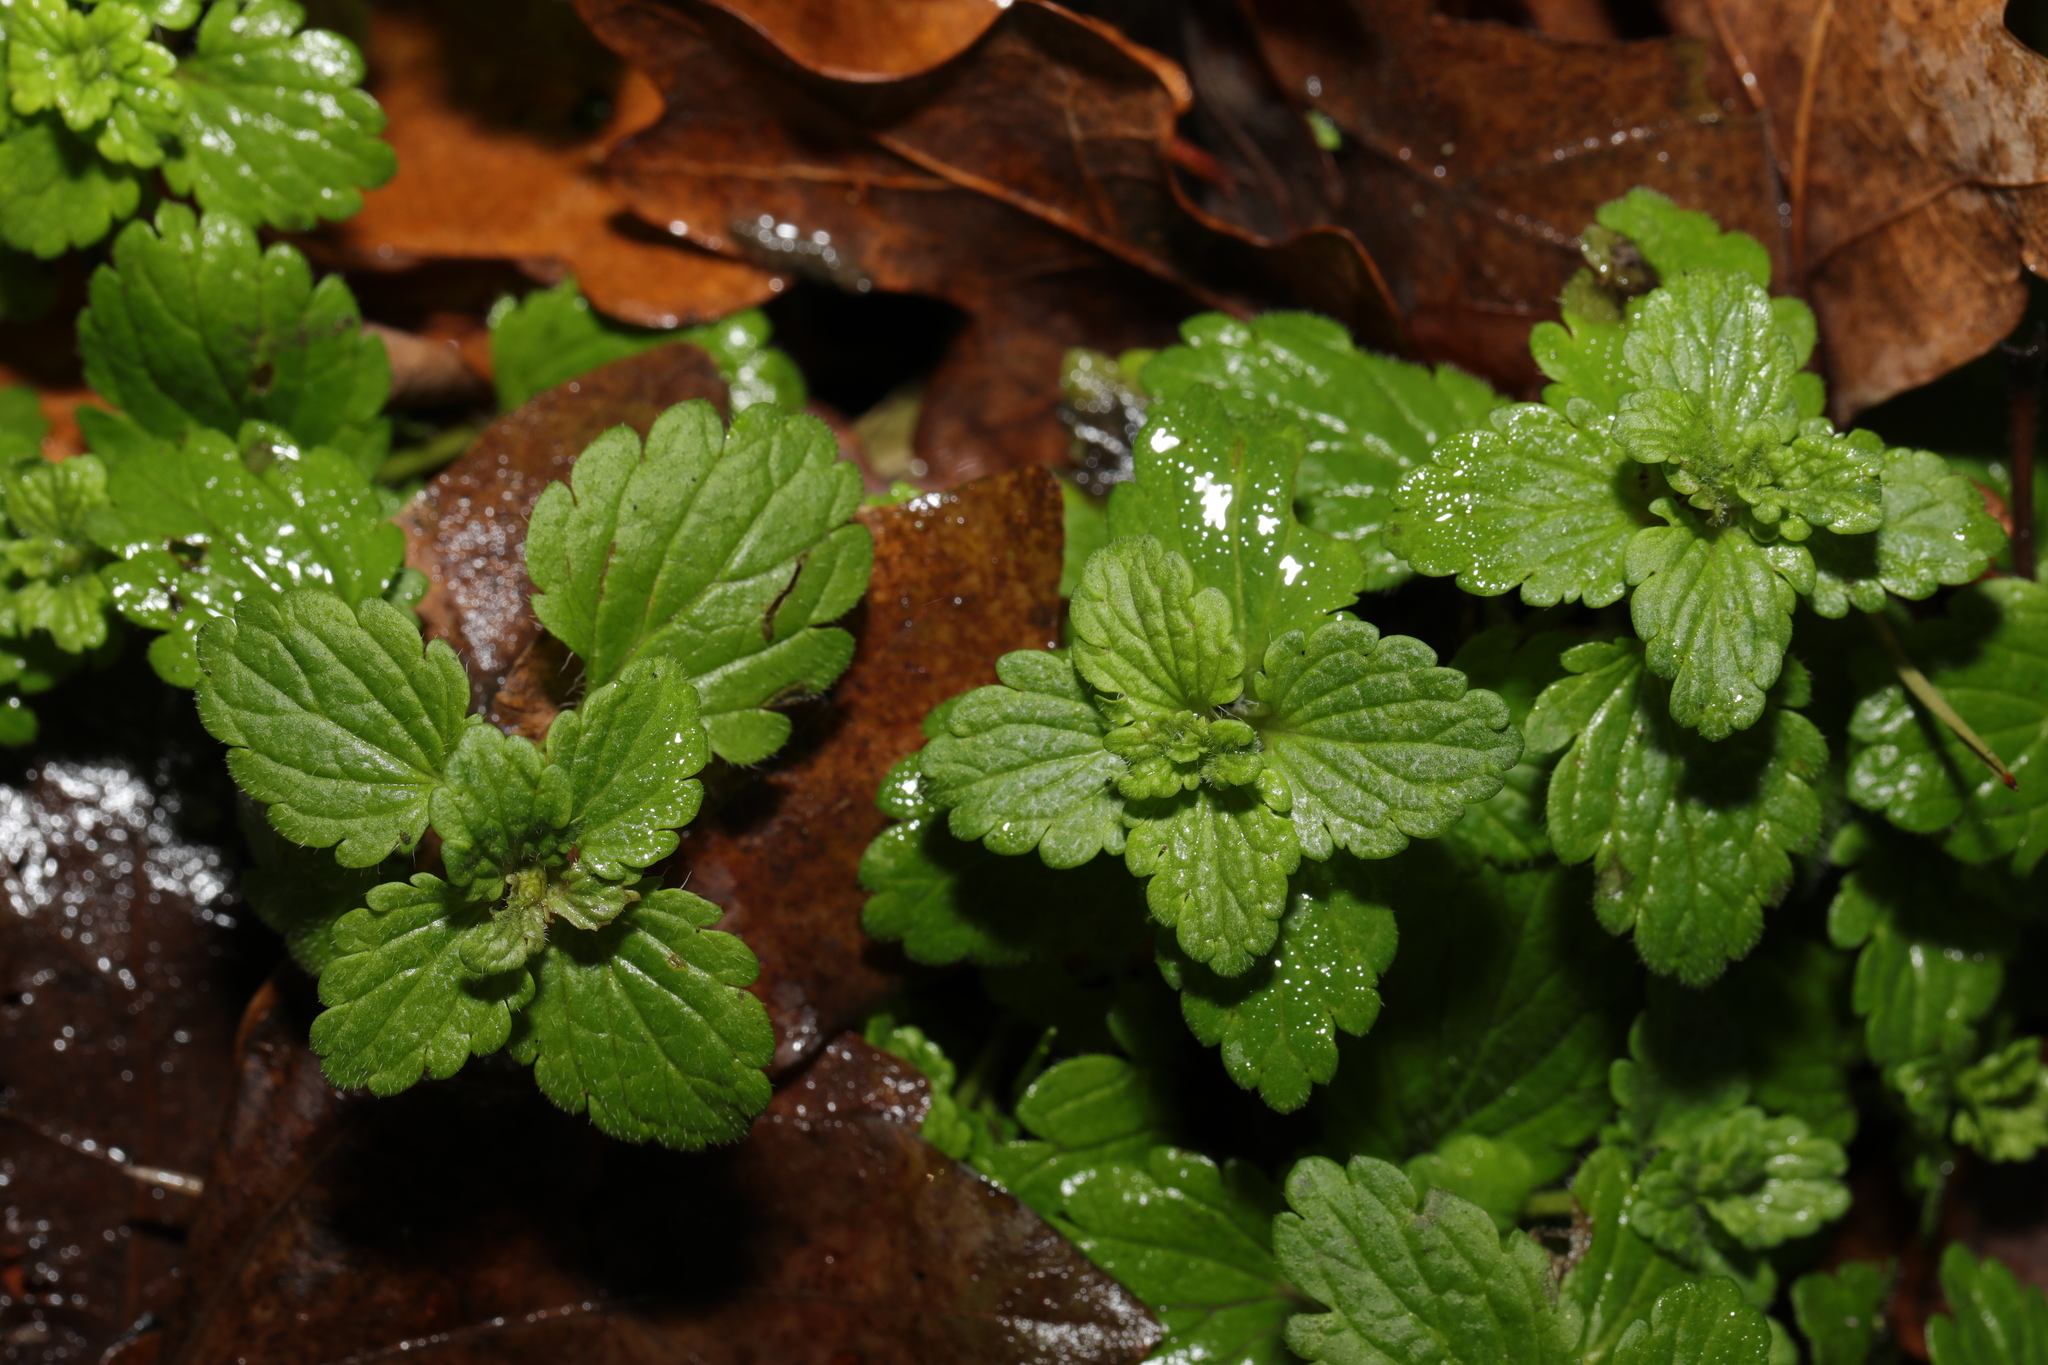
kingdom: Plantae
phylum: Tracheophyta
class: Magnoliopsida
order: Lamiales
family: Plantaginaceae
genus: Veronica
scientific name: Veronica chamaedrys
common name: Germander speedwell
